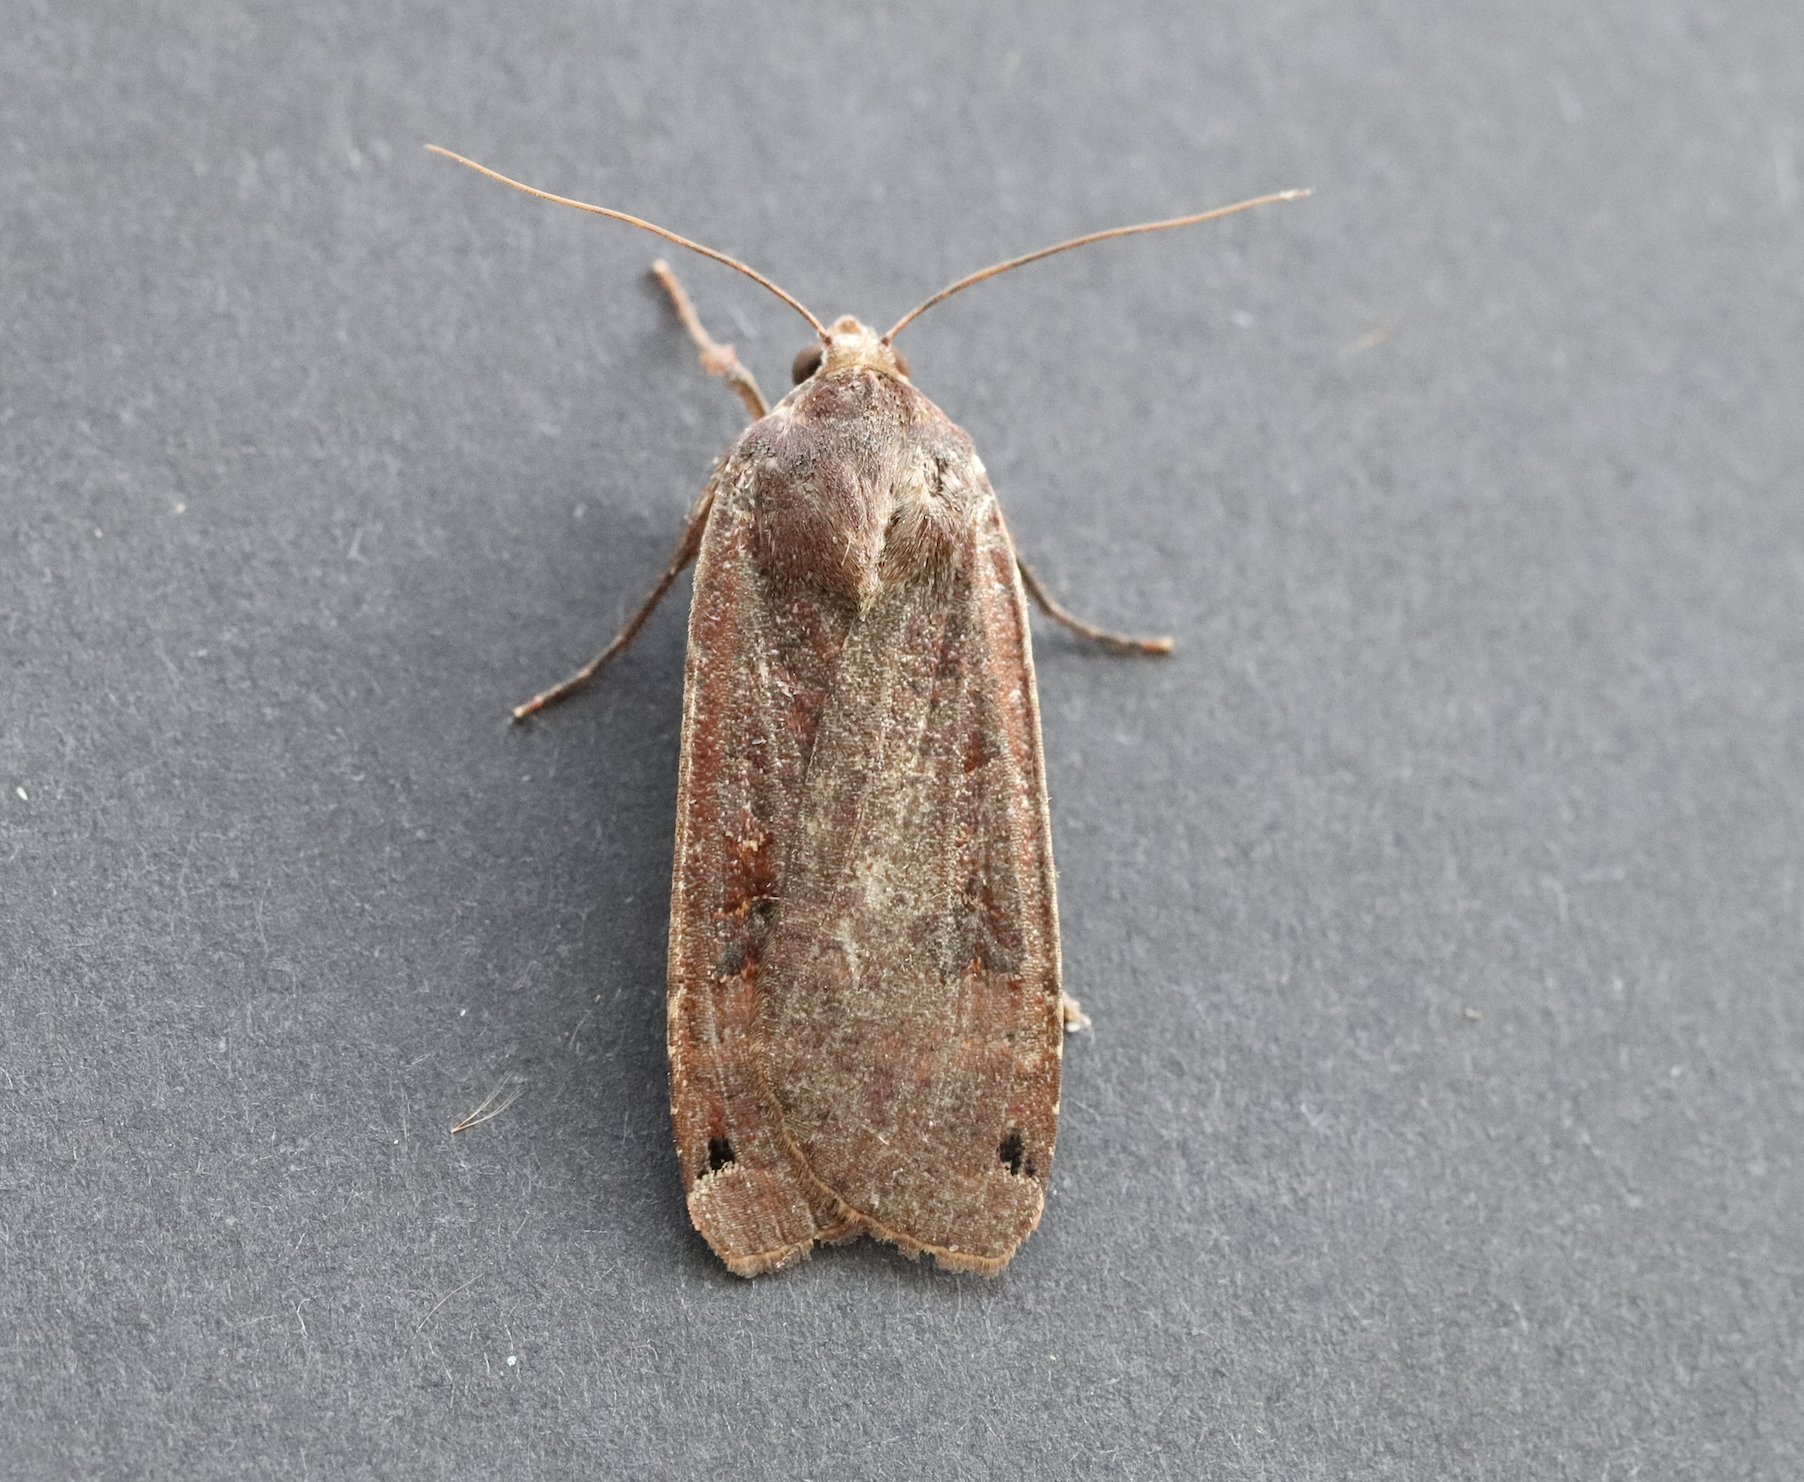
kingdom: Animalia
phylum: Arthropoda
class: Insecta
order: Lepidoptera
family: Noctuidae
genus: Noctua
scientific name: Noctua pronuba
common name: Large yellow underwing
